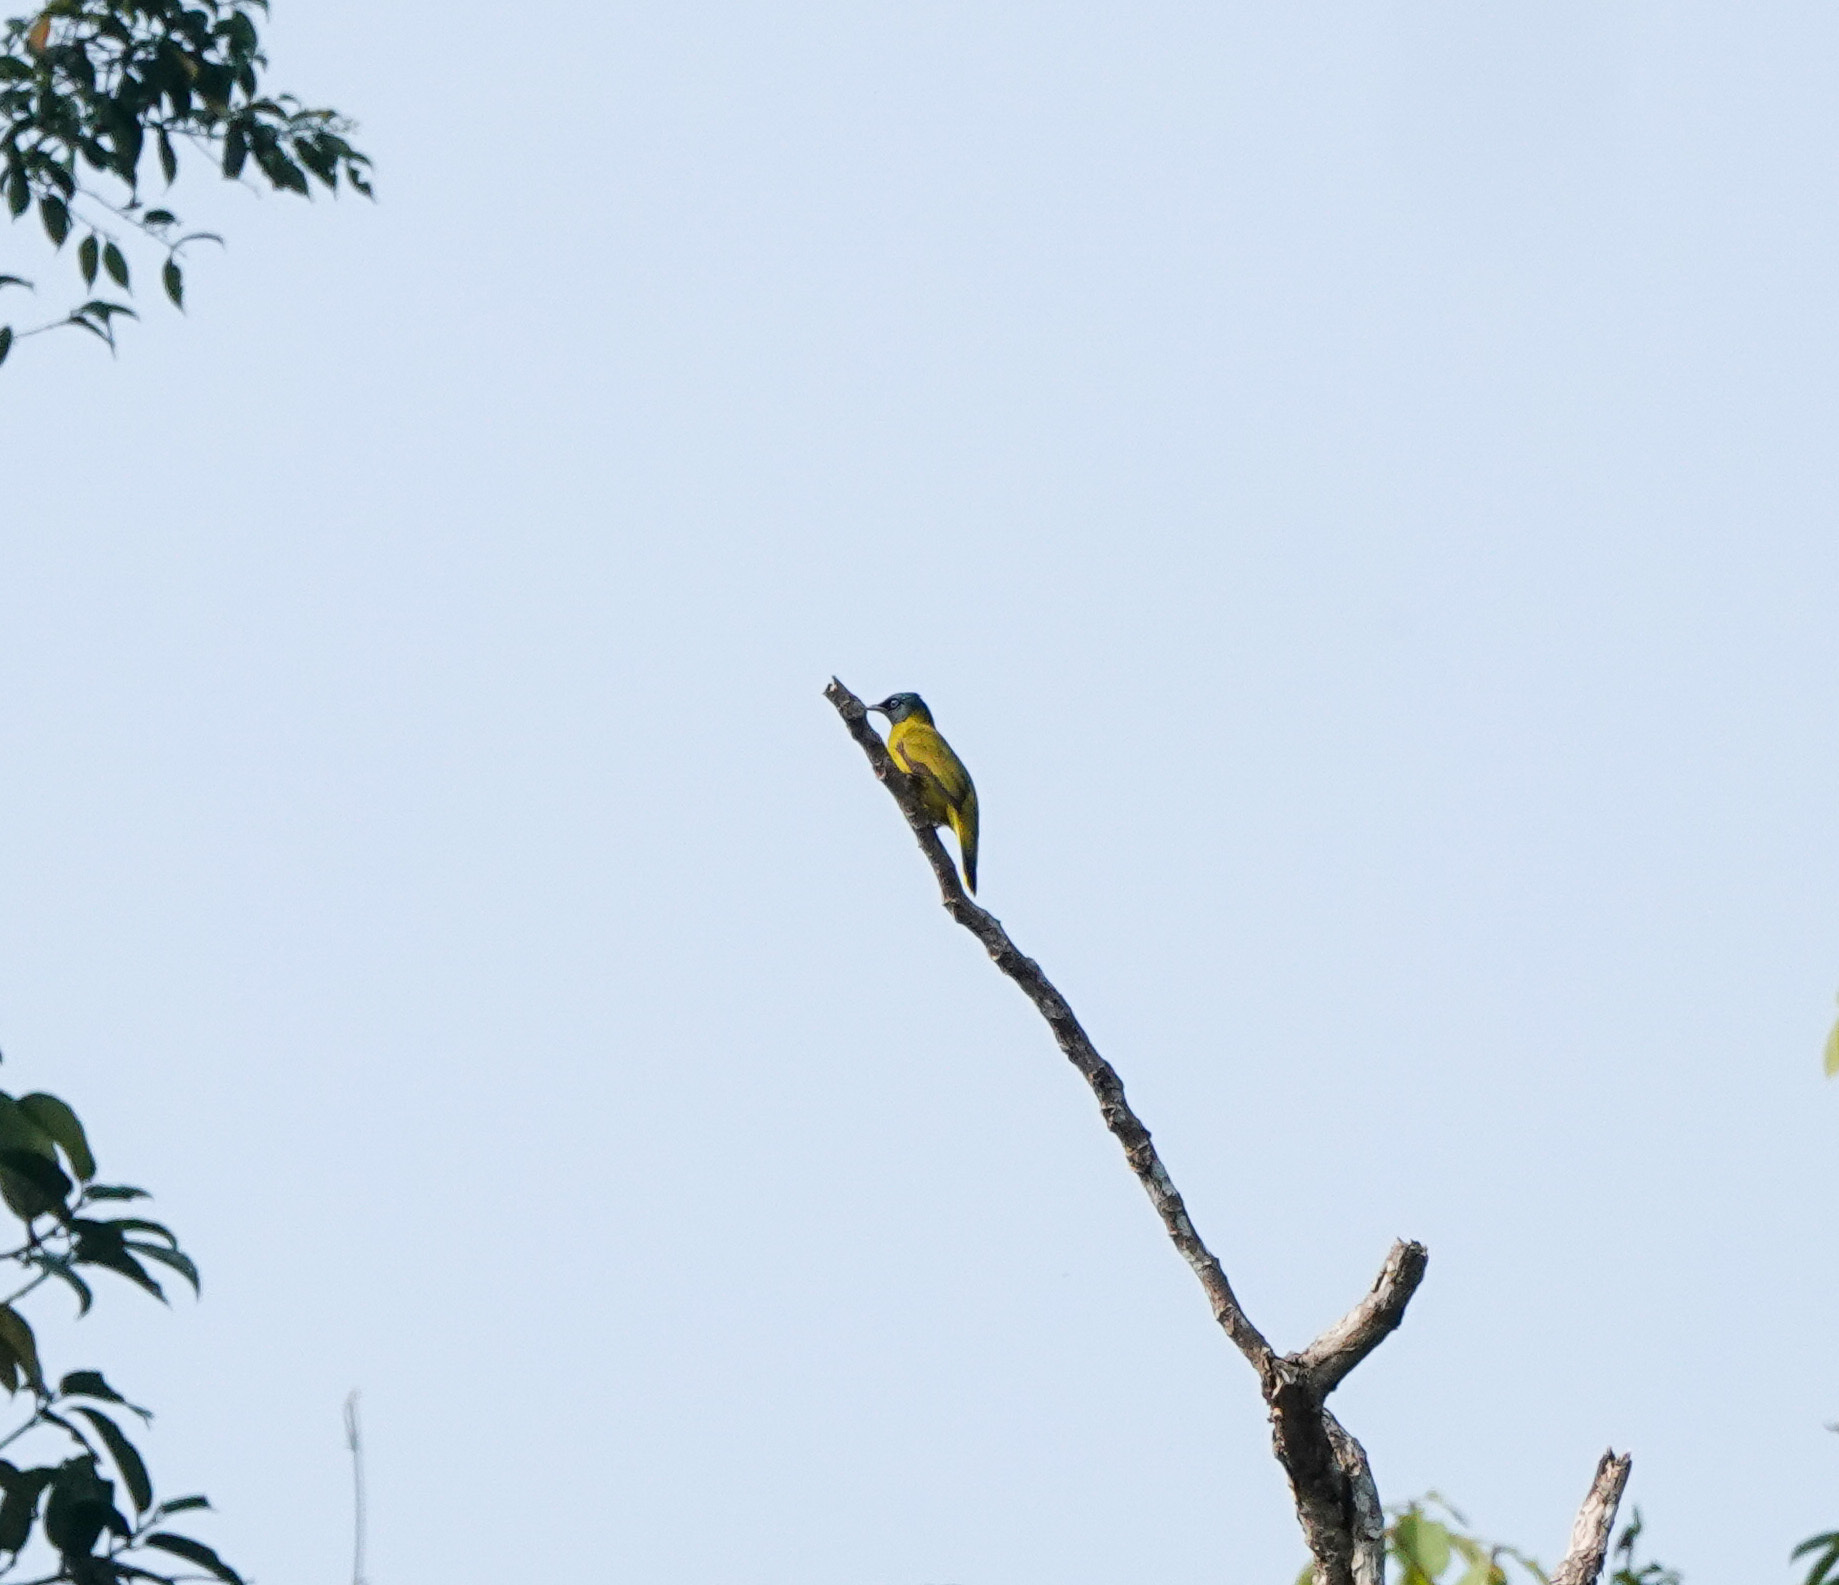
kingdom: Animalia
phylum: Chordata
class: Aves
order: Passeriformes
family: Pycnonotidae
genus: Microtarsus
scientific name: Microtarsus
